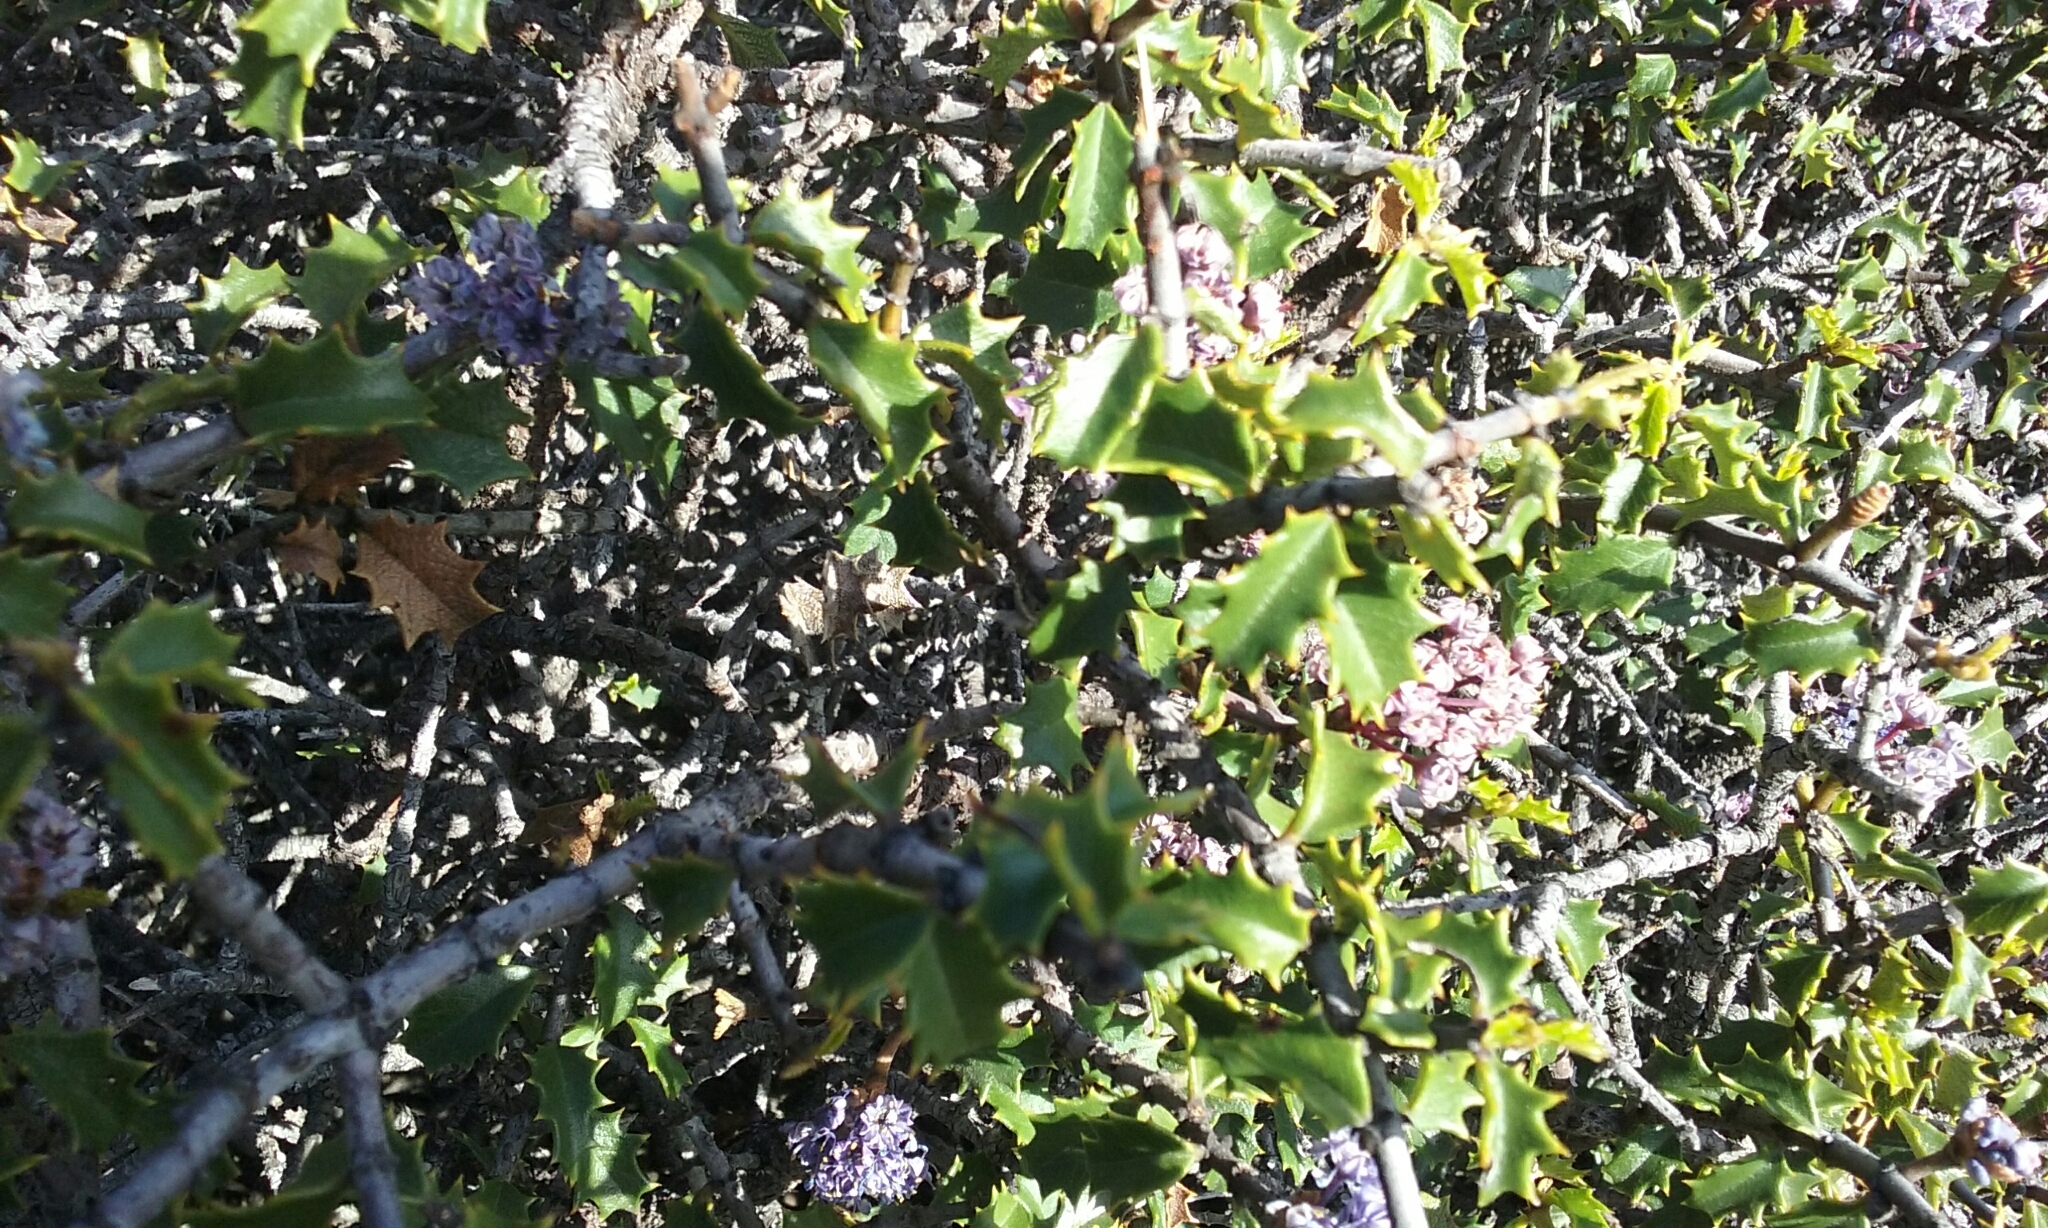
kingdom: Plantae
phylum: Tracheophyta
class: Magnoliopsida
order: Rosales
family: Rhamnaceae
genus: Ceanothus
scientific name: Ceanothus jepsonii
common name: Muskbrush
